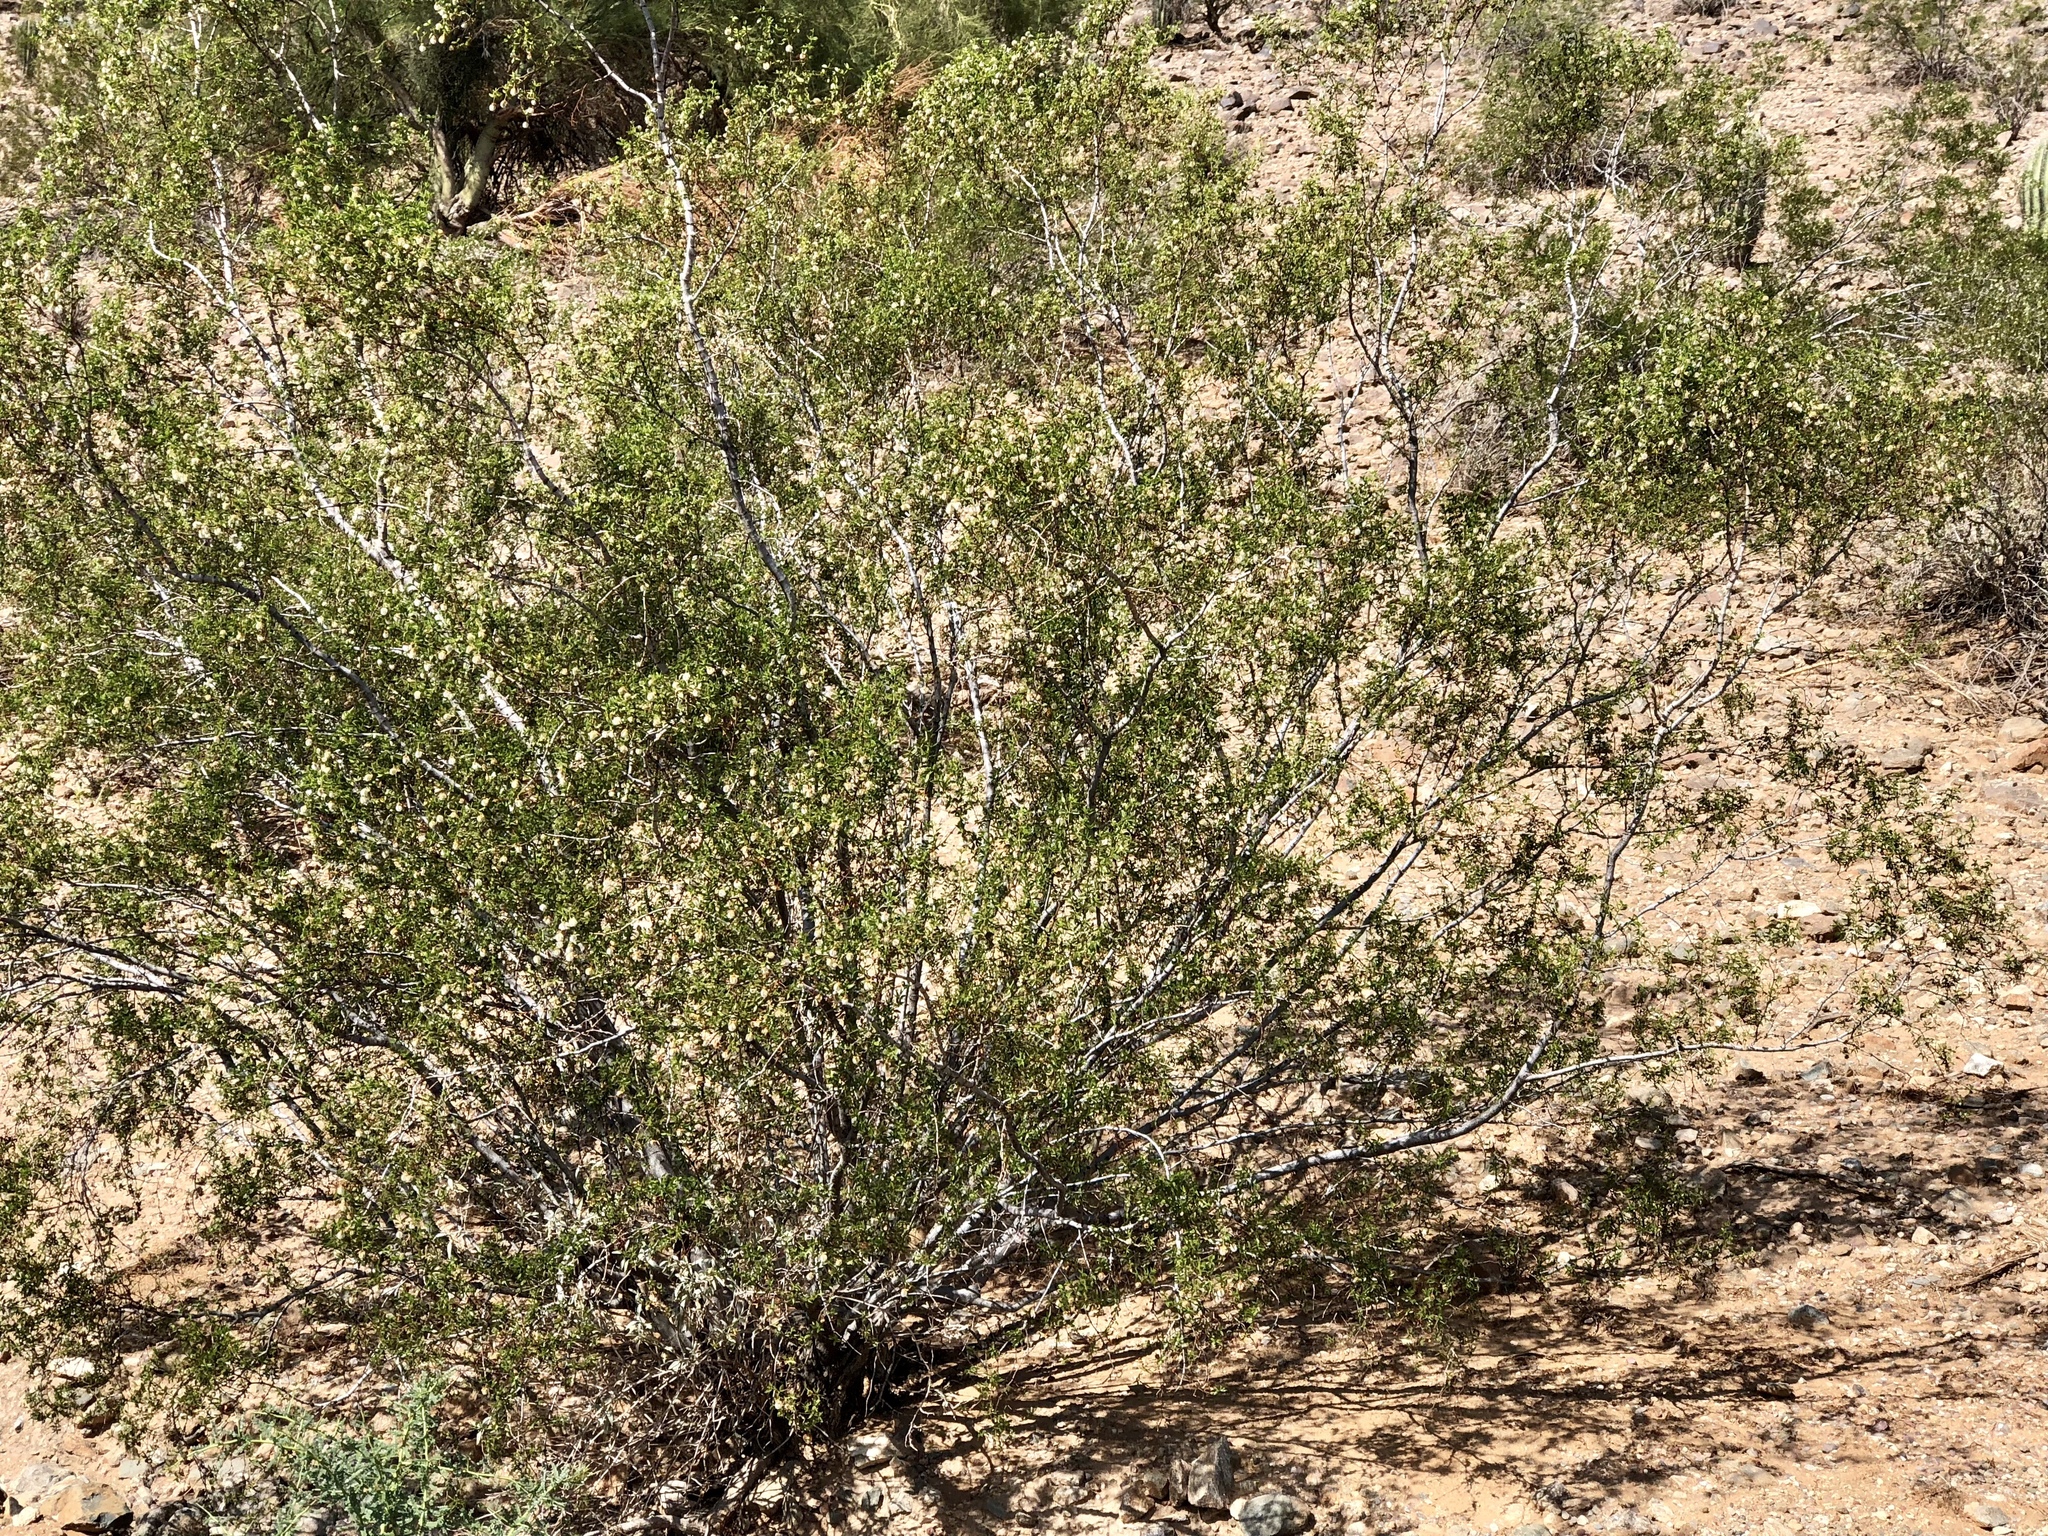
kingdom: Plantae
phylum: Tracheophyta
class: Magnoliopsida
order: Zygophyllales
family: Zygophyllaceae
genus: Larrea
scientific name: Larrea tridentata
